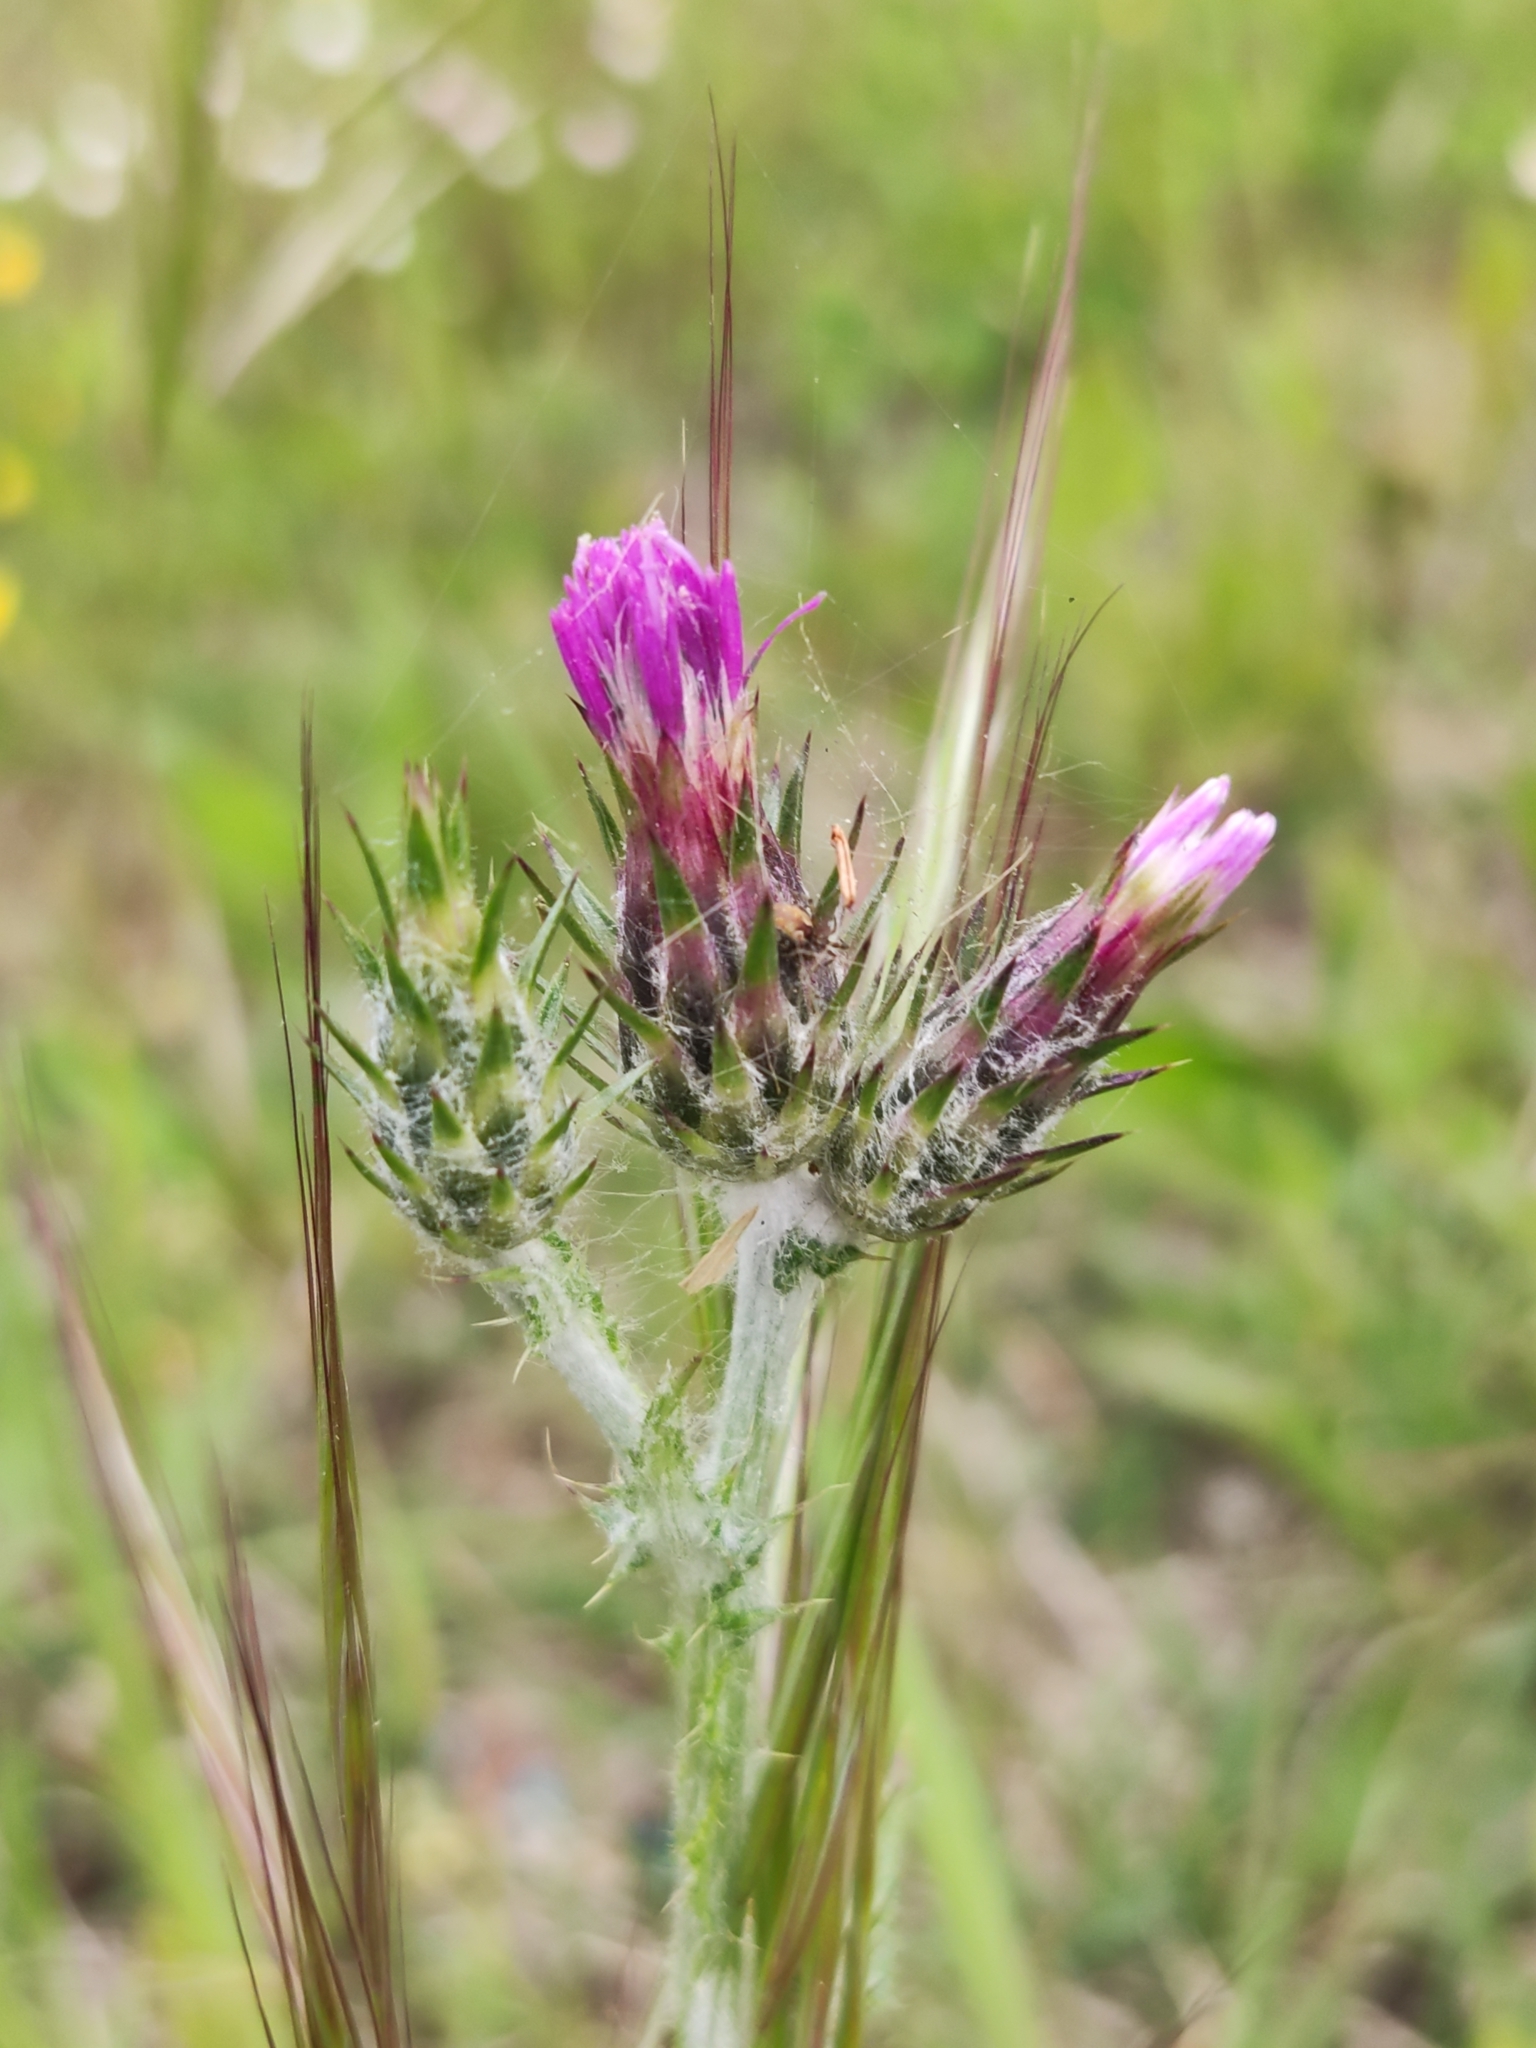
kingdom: Plantae
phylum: Tracheophyta
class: Magnoliopsida
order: Asterales
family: Asteraceae
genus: Carduus
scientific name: Carduus pycnocephalus
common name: Plymouth thistle
